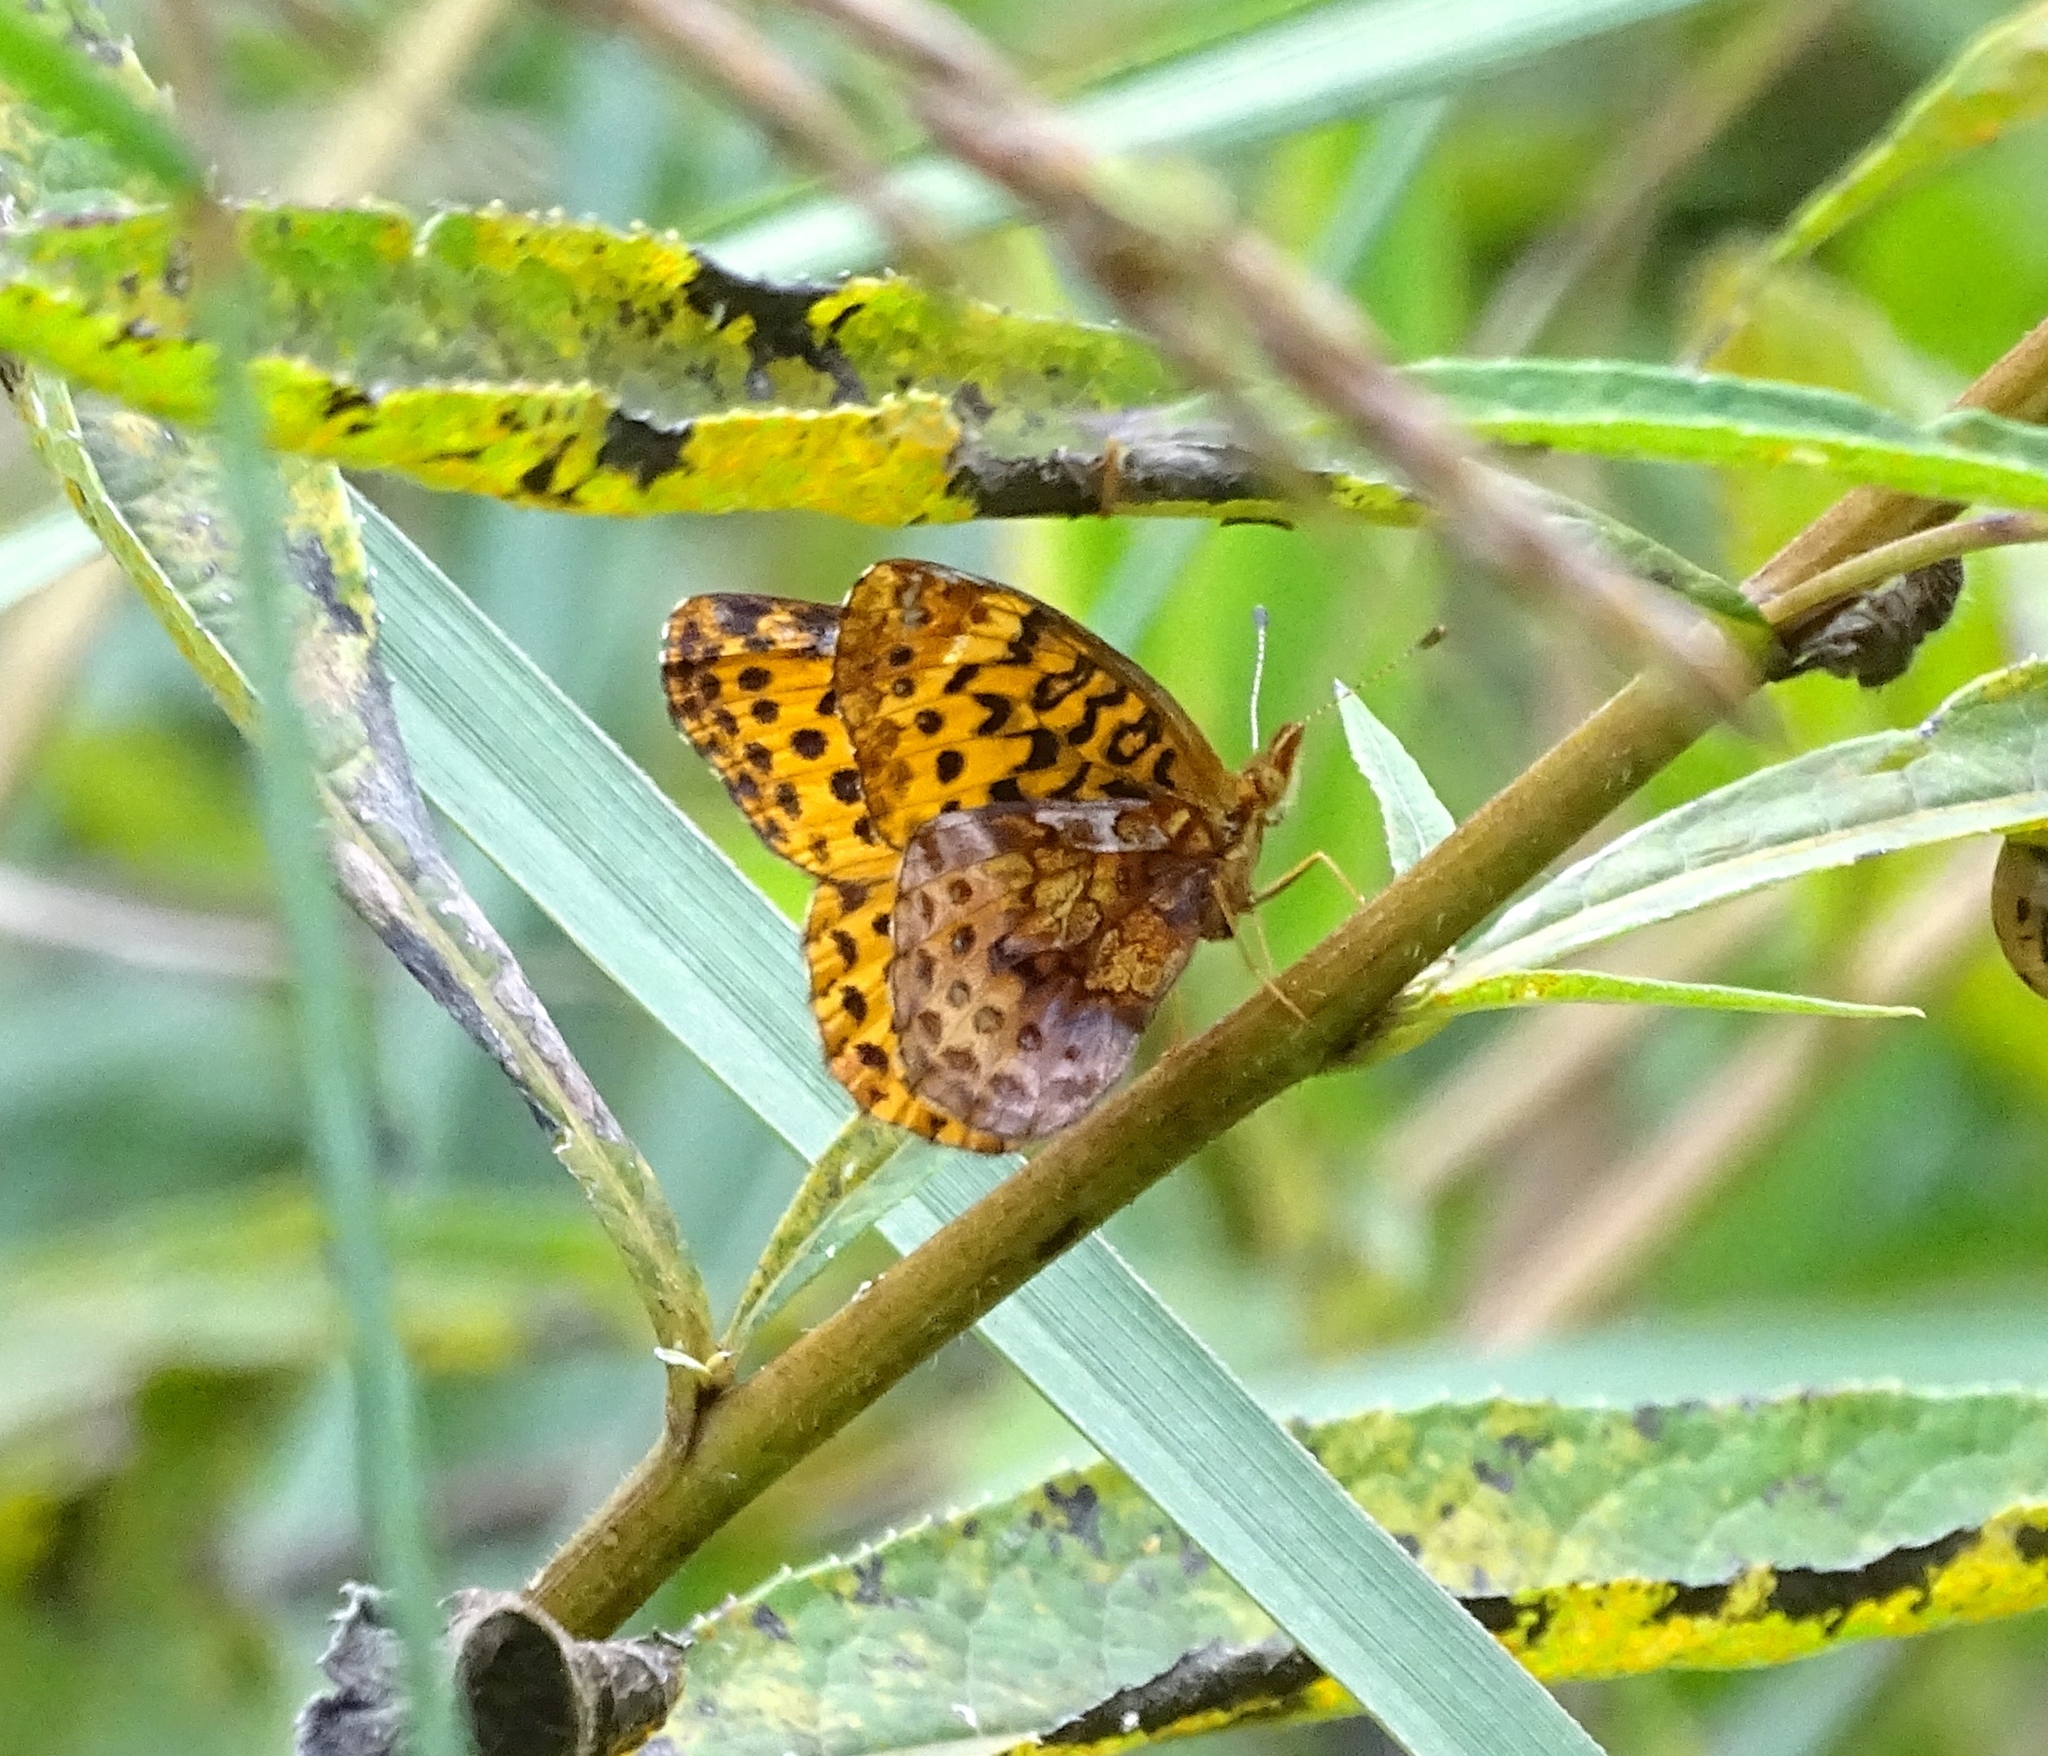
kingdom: Animalia
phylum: Arthropoda
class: Insecta
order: Lepidoptera
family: Nymphalidae
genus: Clossiana
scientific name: Clossiana toddi
